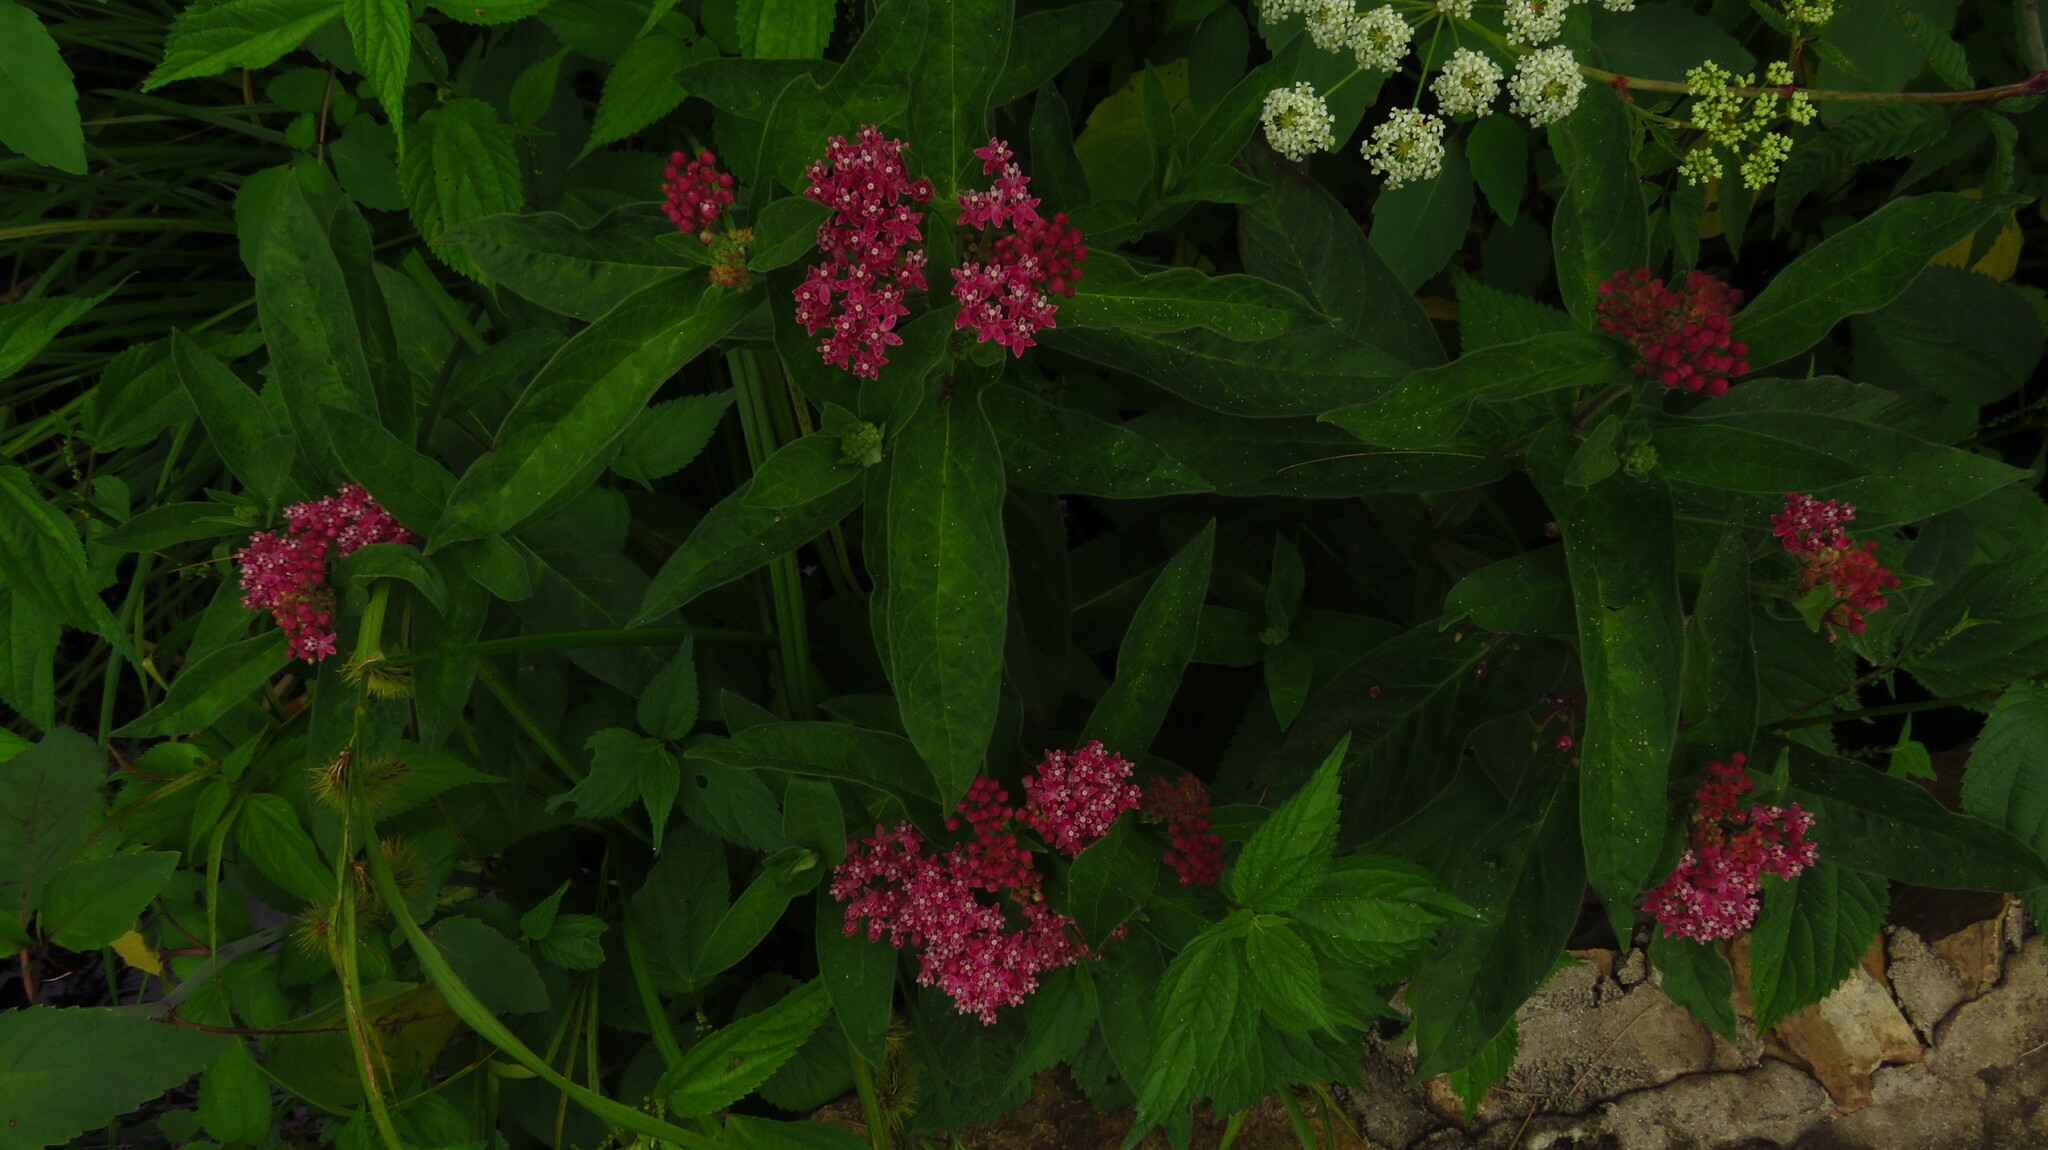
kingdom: Plantae
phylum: Tracheophyta
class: Magnoliopsida
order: Gentianales
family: Apocynaceae
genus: Asclepias
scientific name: Asclepias incarnata
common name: Swamp milkweed
